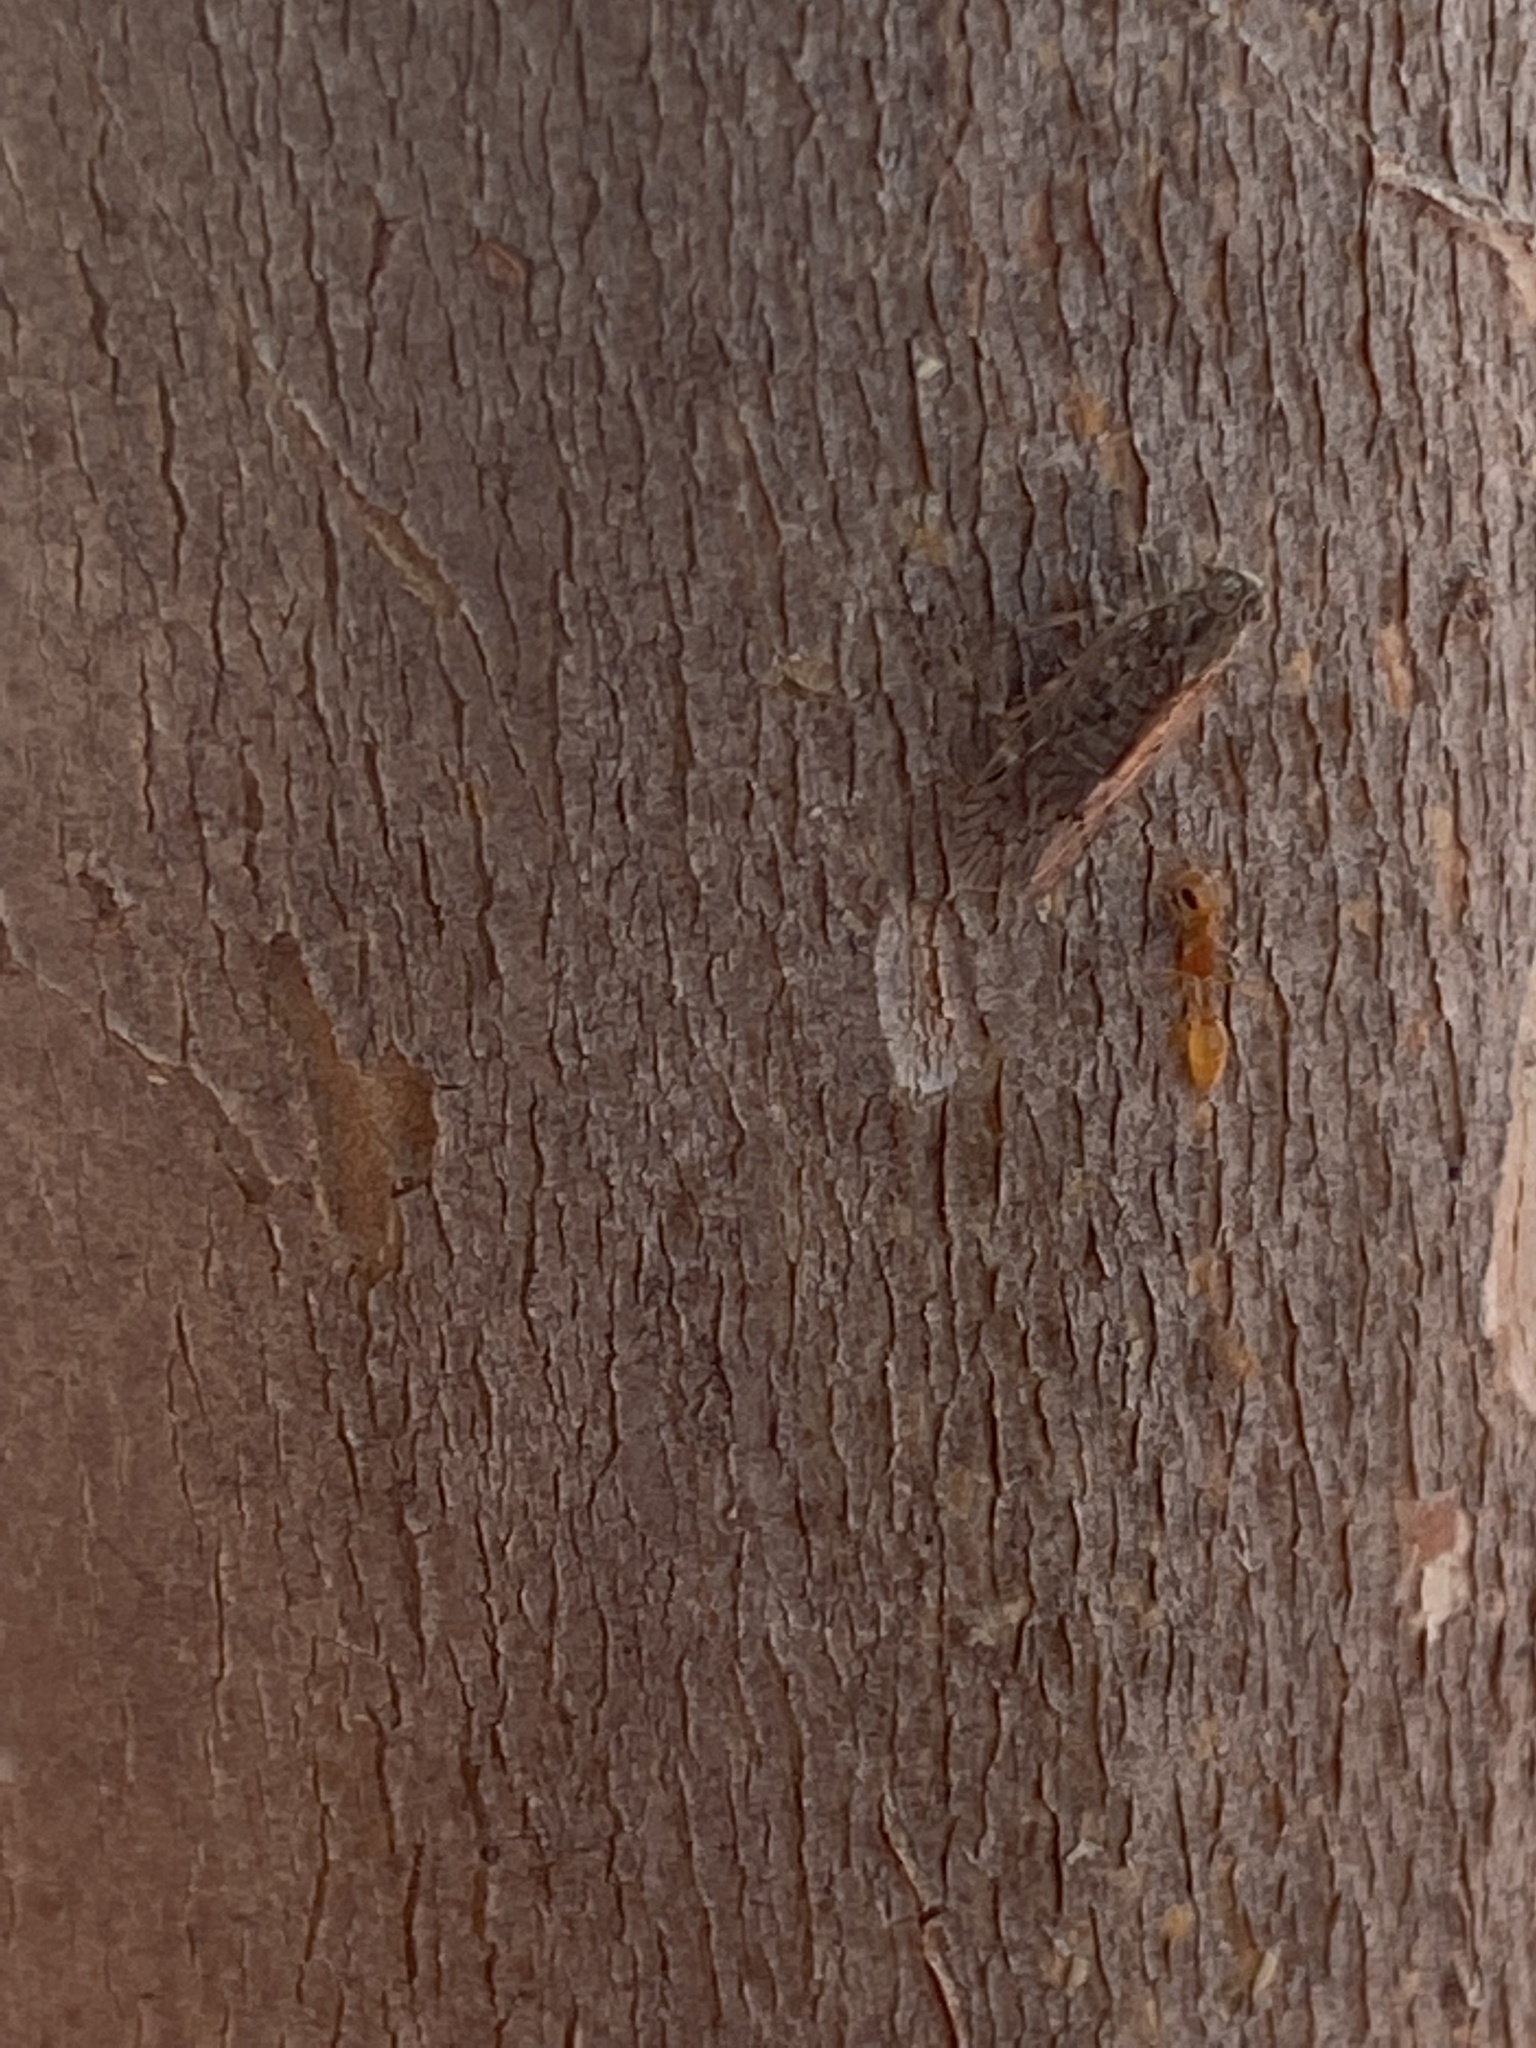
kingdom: Animalia
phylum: Arthropoda
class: Insecta
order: Hymenoptera
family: Formicidae
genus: Pseudomyrmex
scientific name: Pseudomyrmex pallidus
